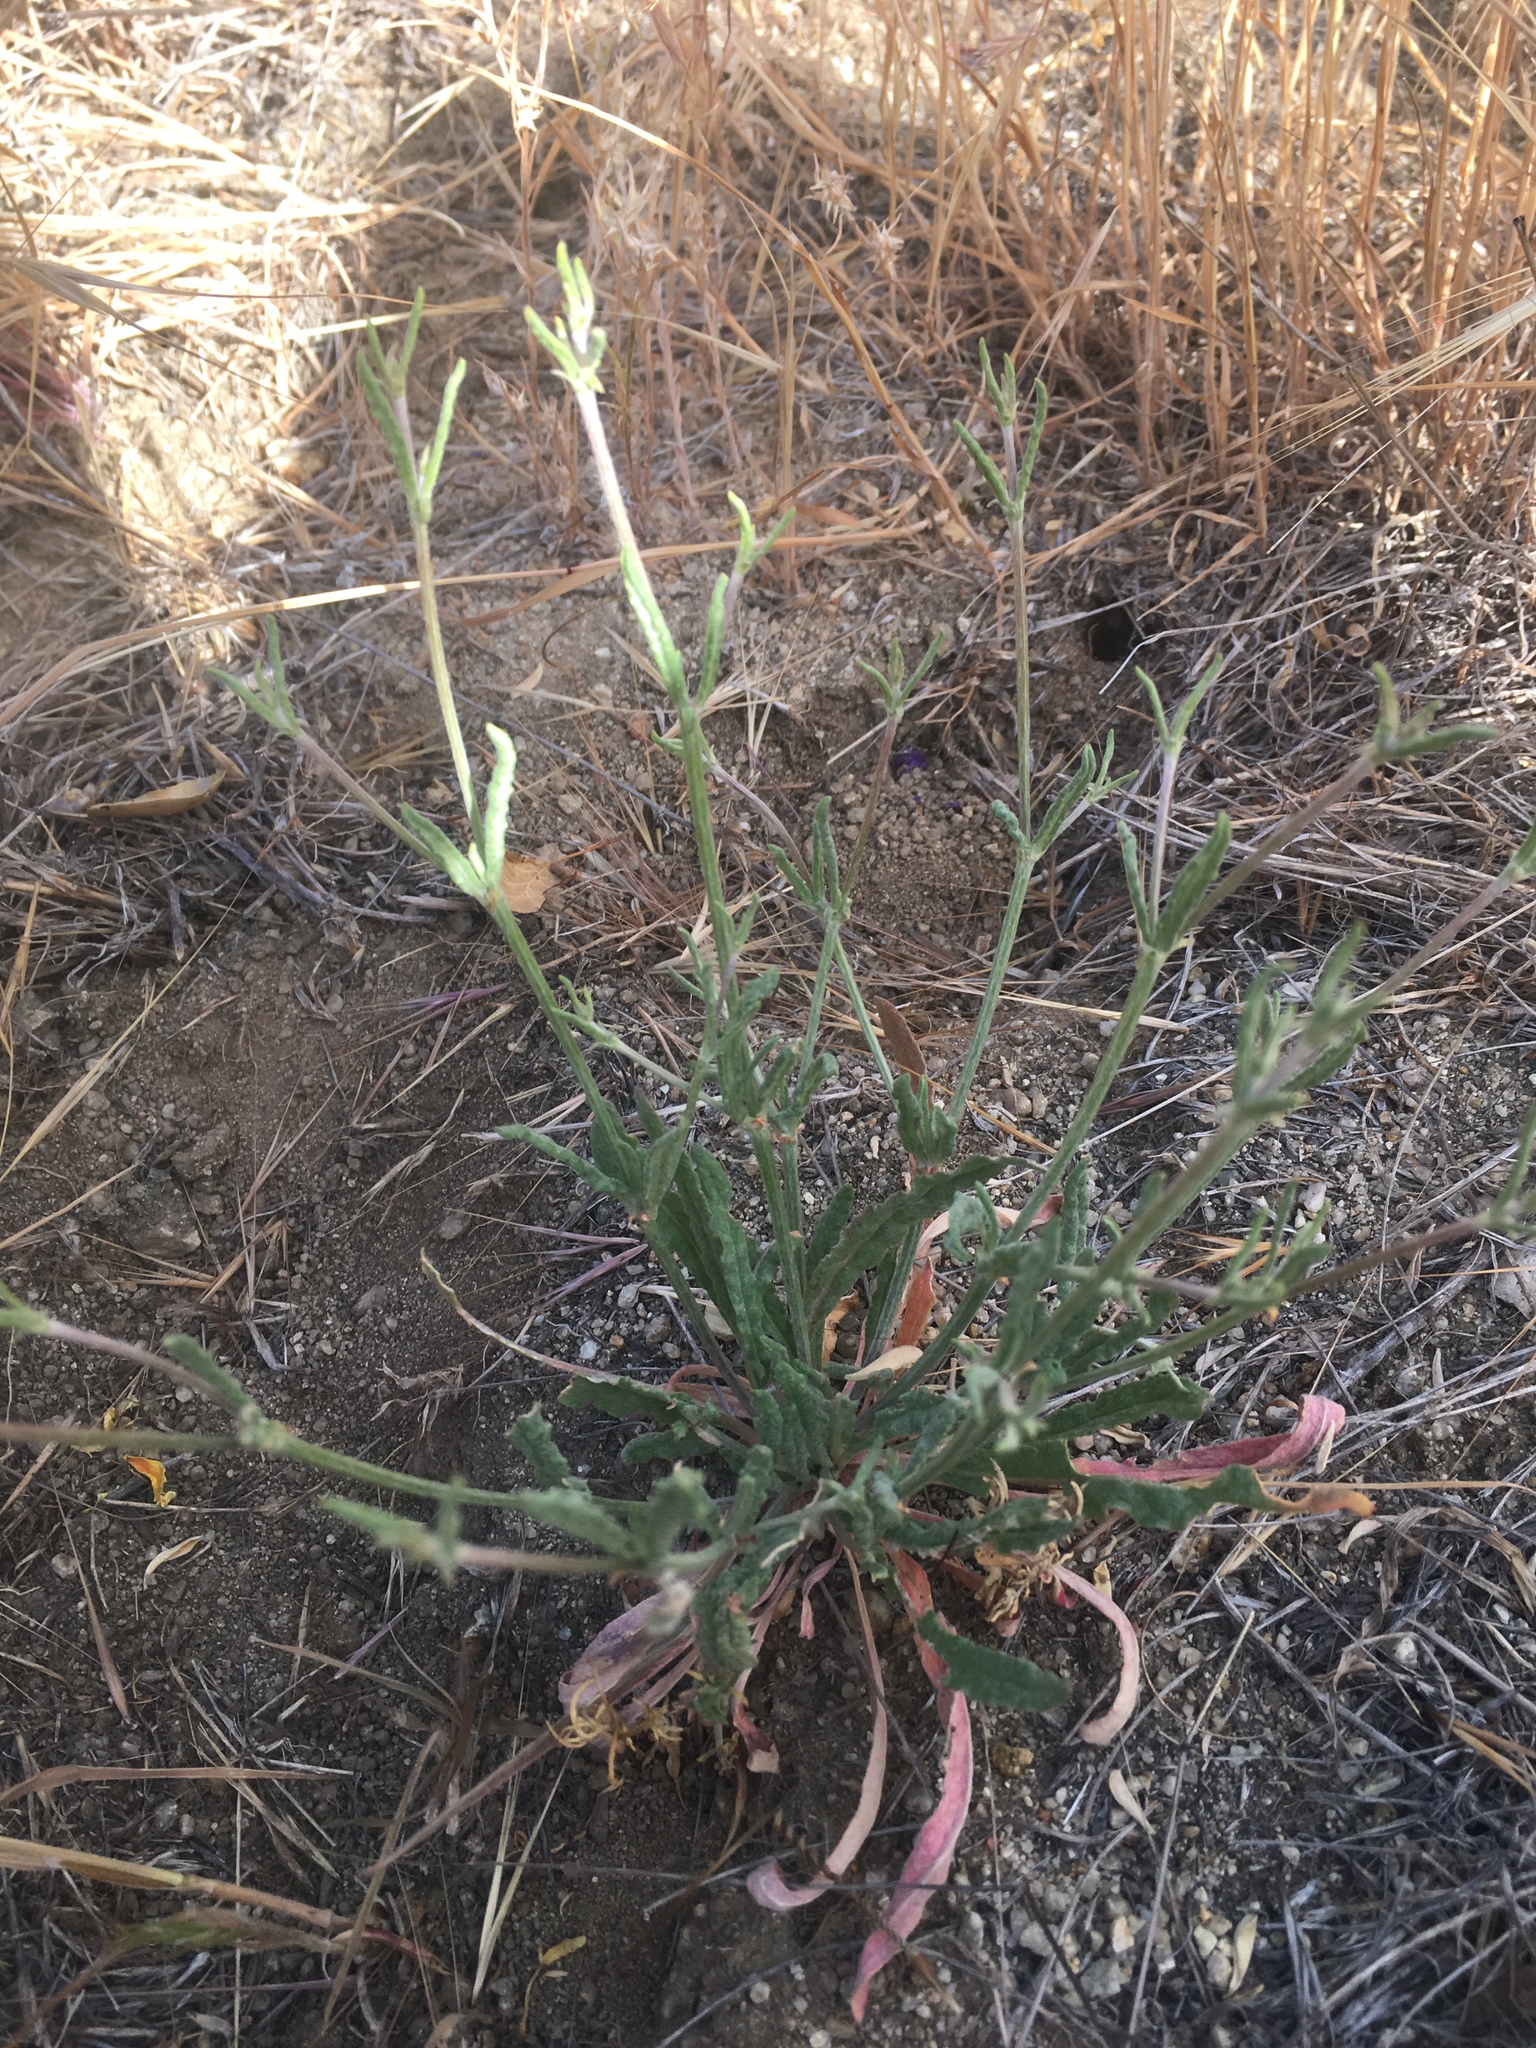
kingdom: Plantae
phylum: Tracheophyta
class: Magnoliopsida
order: Caryophyllales
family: Polygonaceae
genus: Eriogonum
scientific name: Eriogonum angulosum
